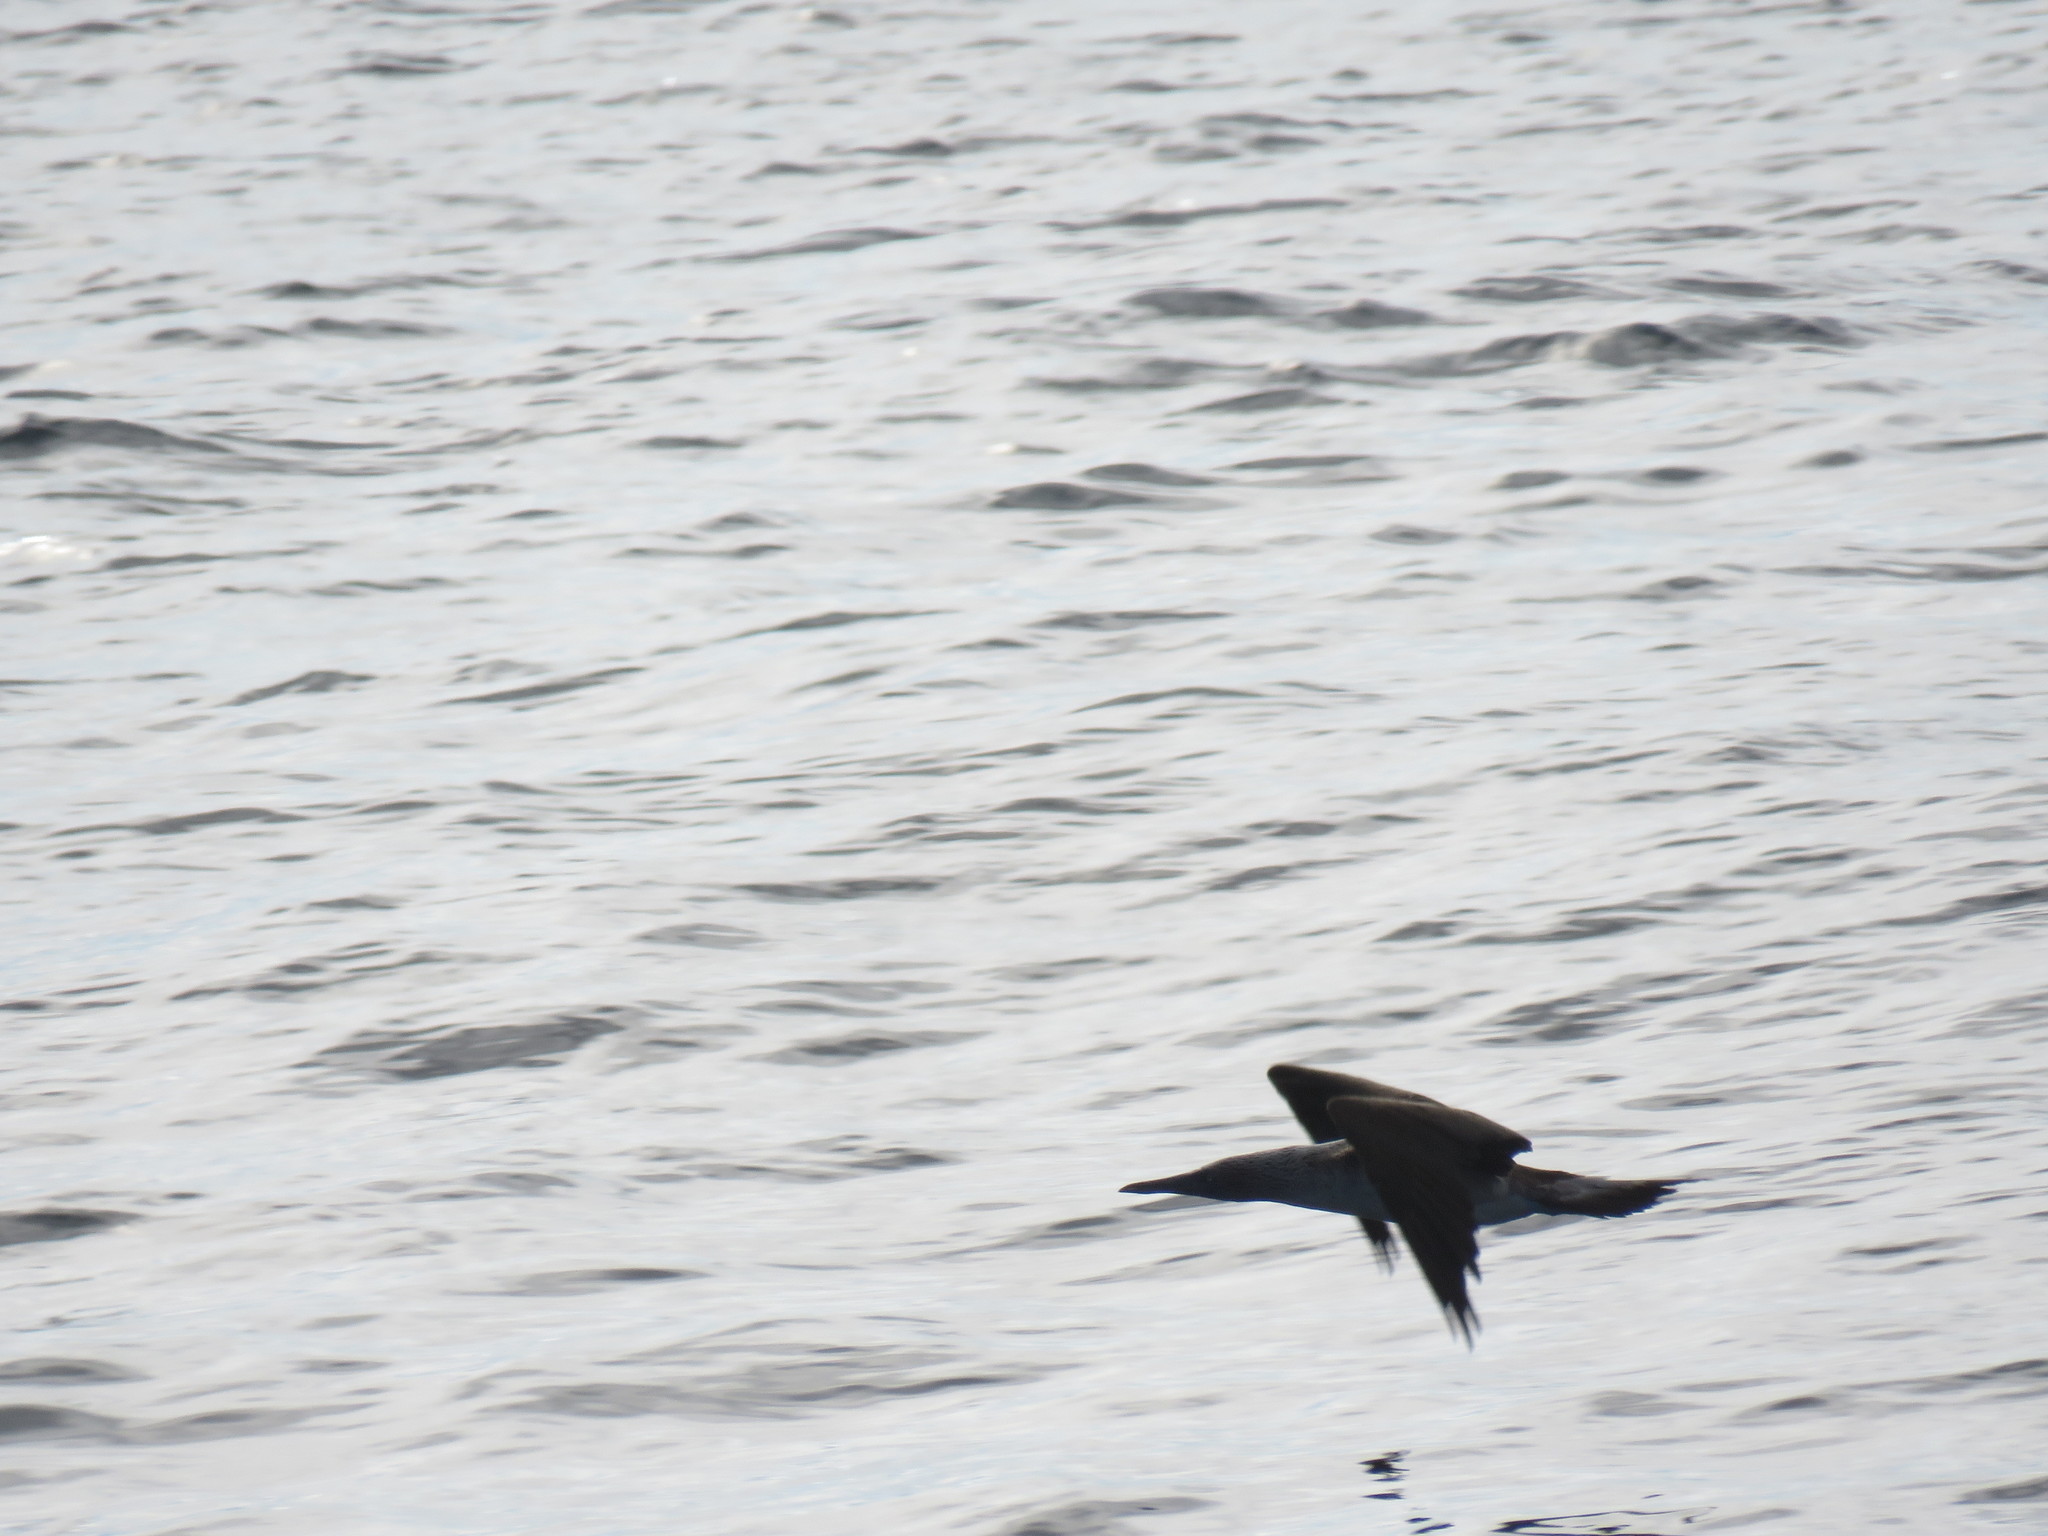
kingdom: Animalia
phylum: Chordata
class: Aves
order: Suliformes
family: Sulidae
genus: Sula
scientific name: Sula nebouxii
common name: Blue-footed booby
